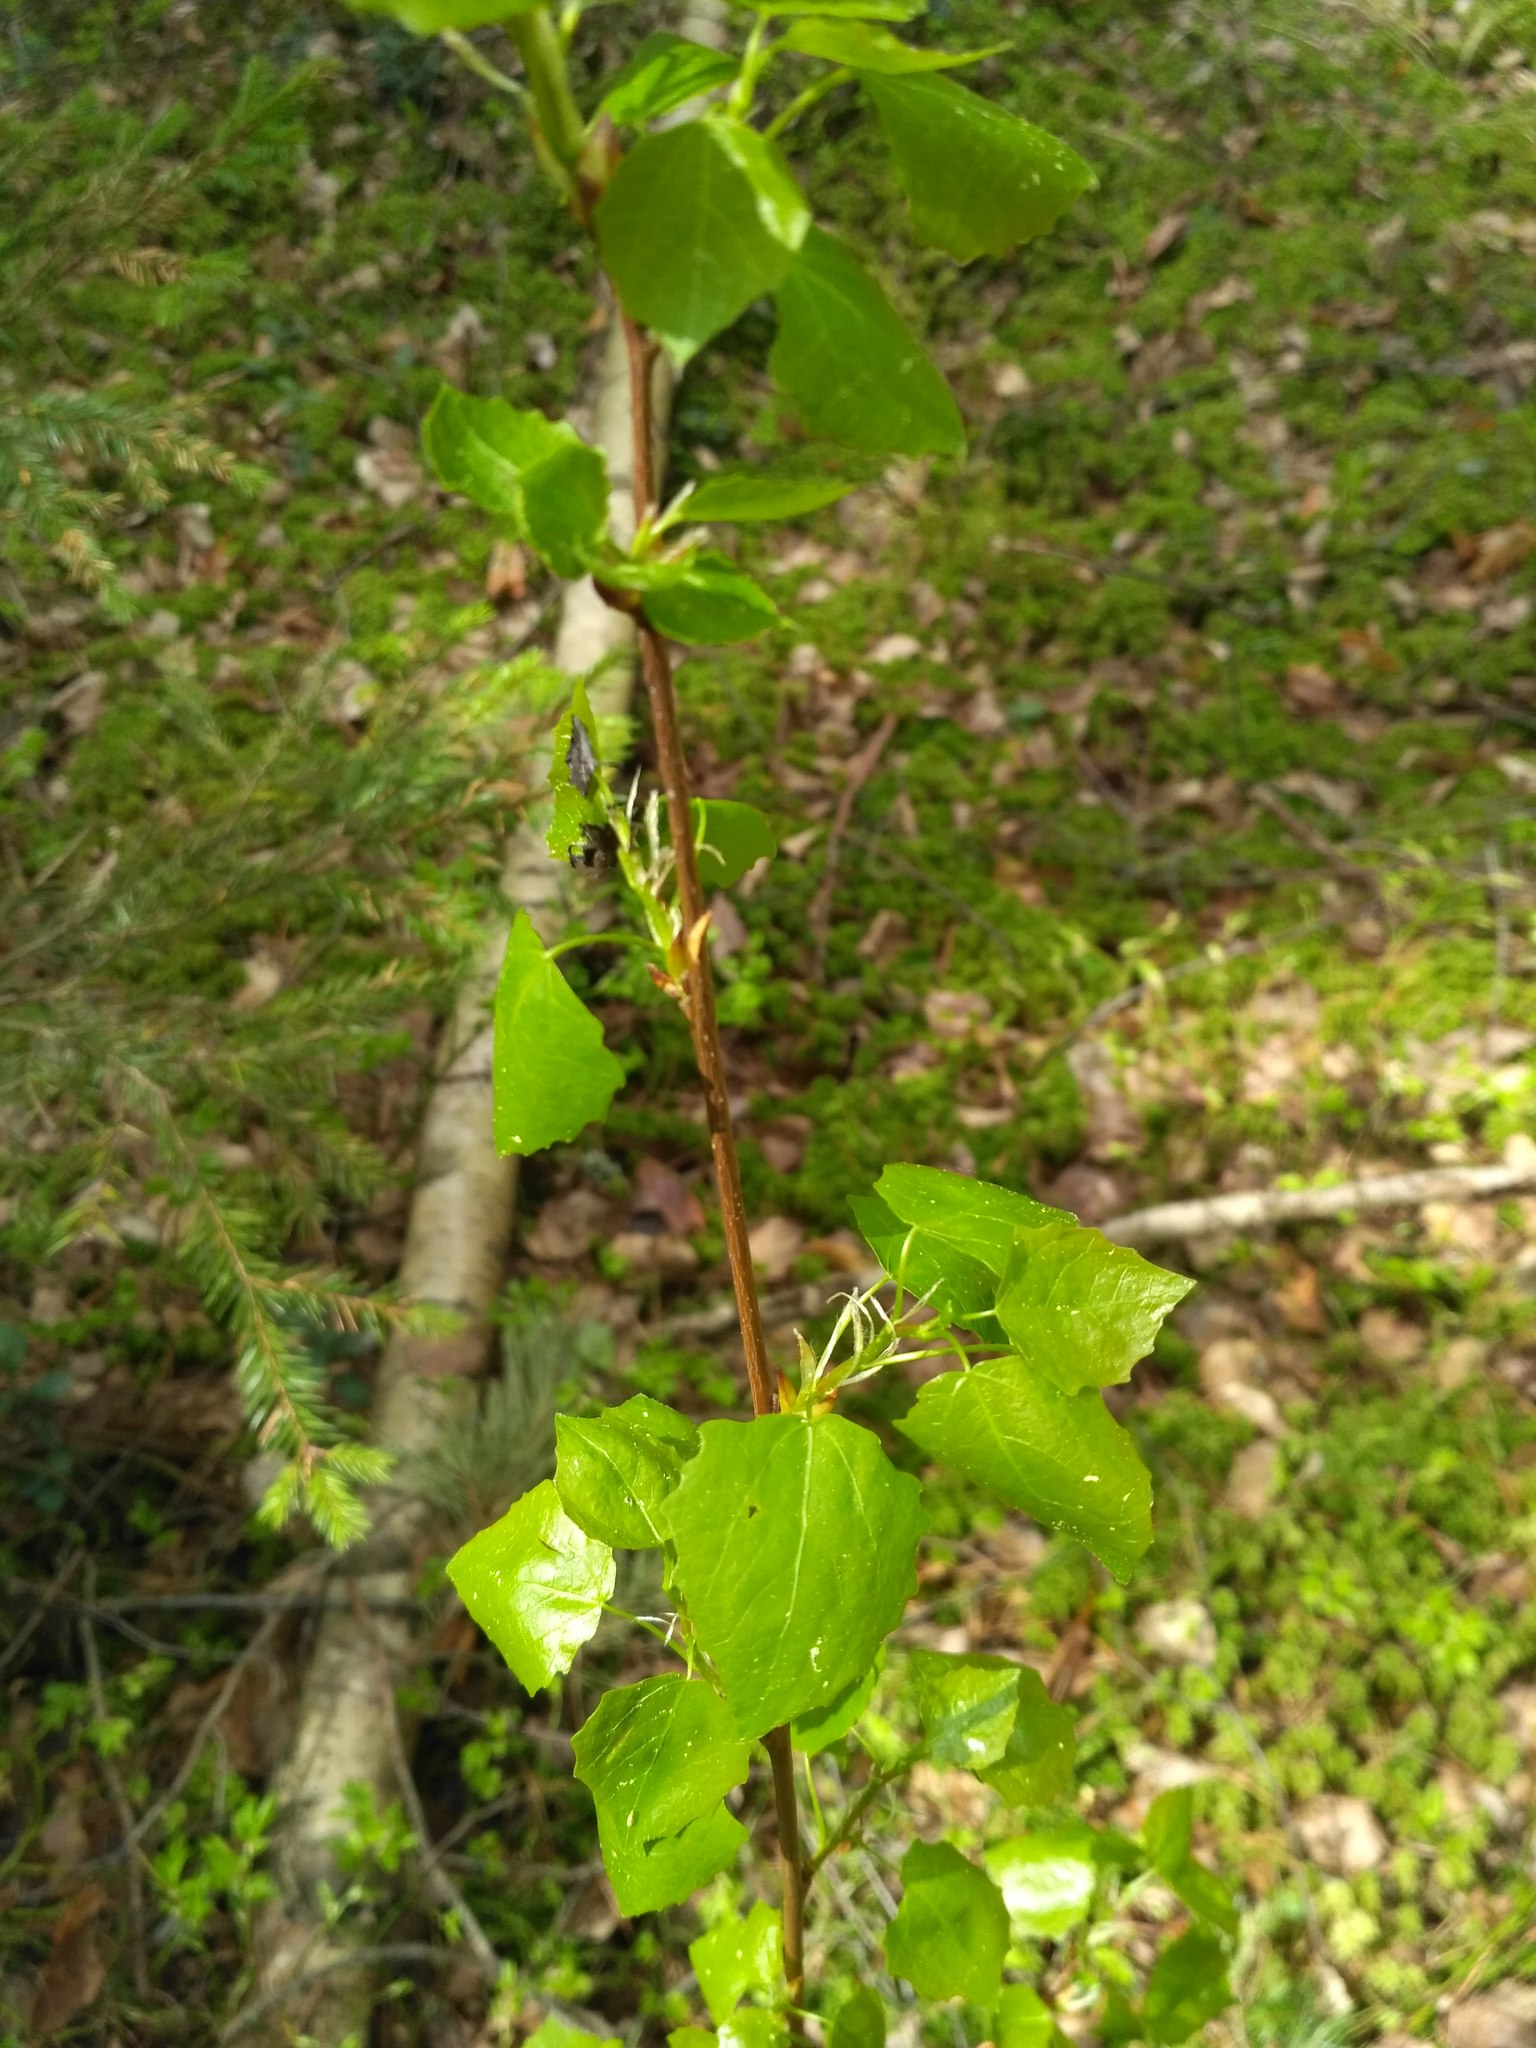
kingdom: Plantae
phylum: Tracheophyta
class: Magnoliopsida
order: Malpighiales
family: Salicaceae
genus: Populus
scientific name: Populus tremula
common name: European aspen
